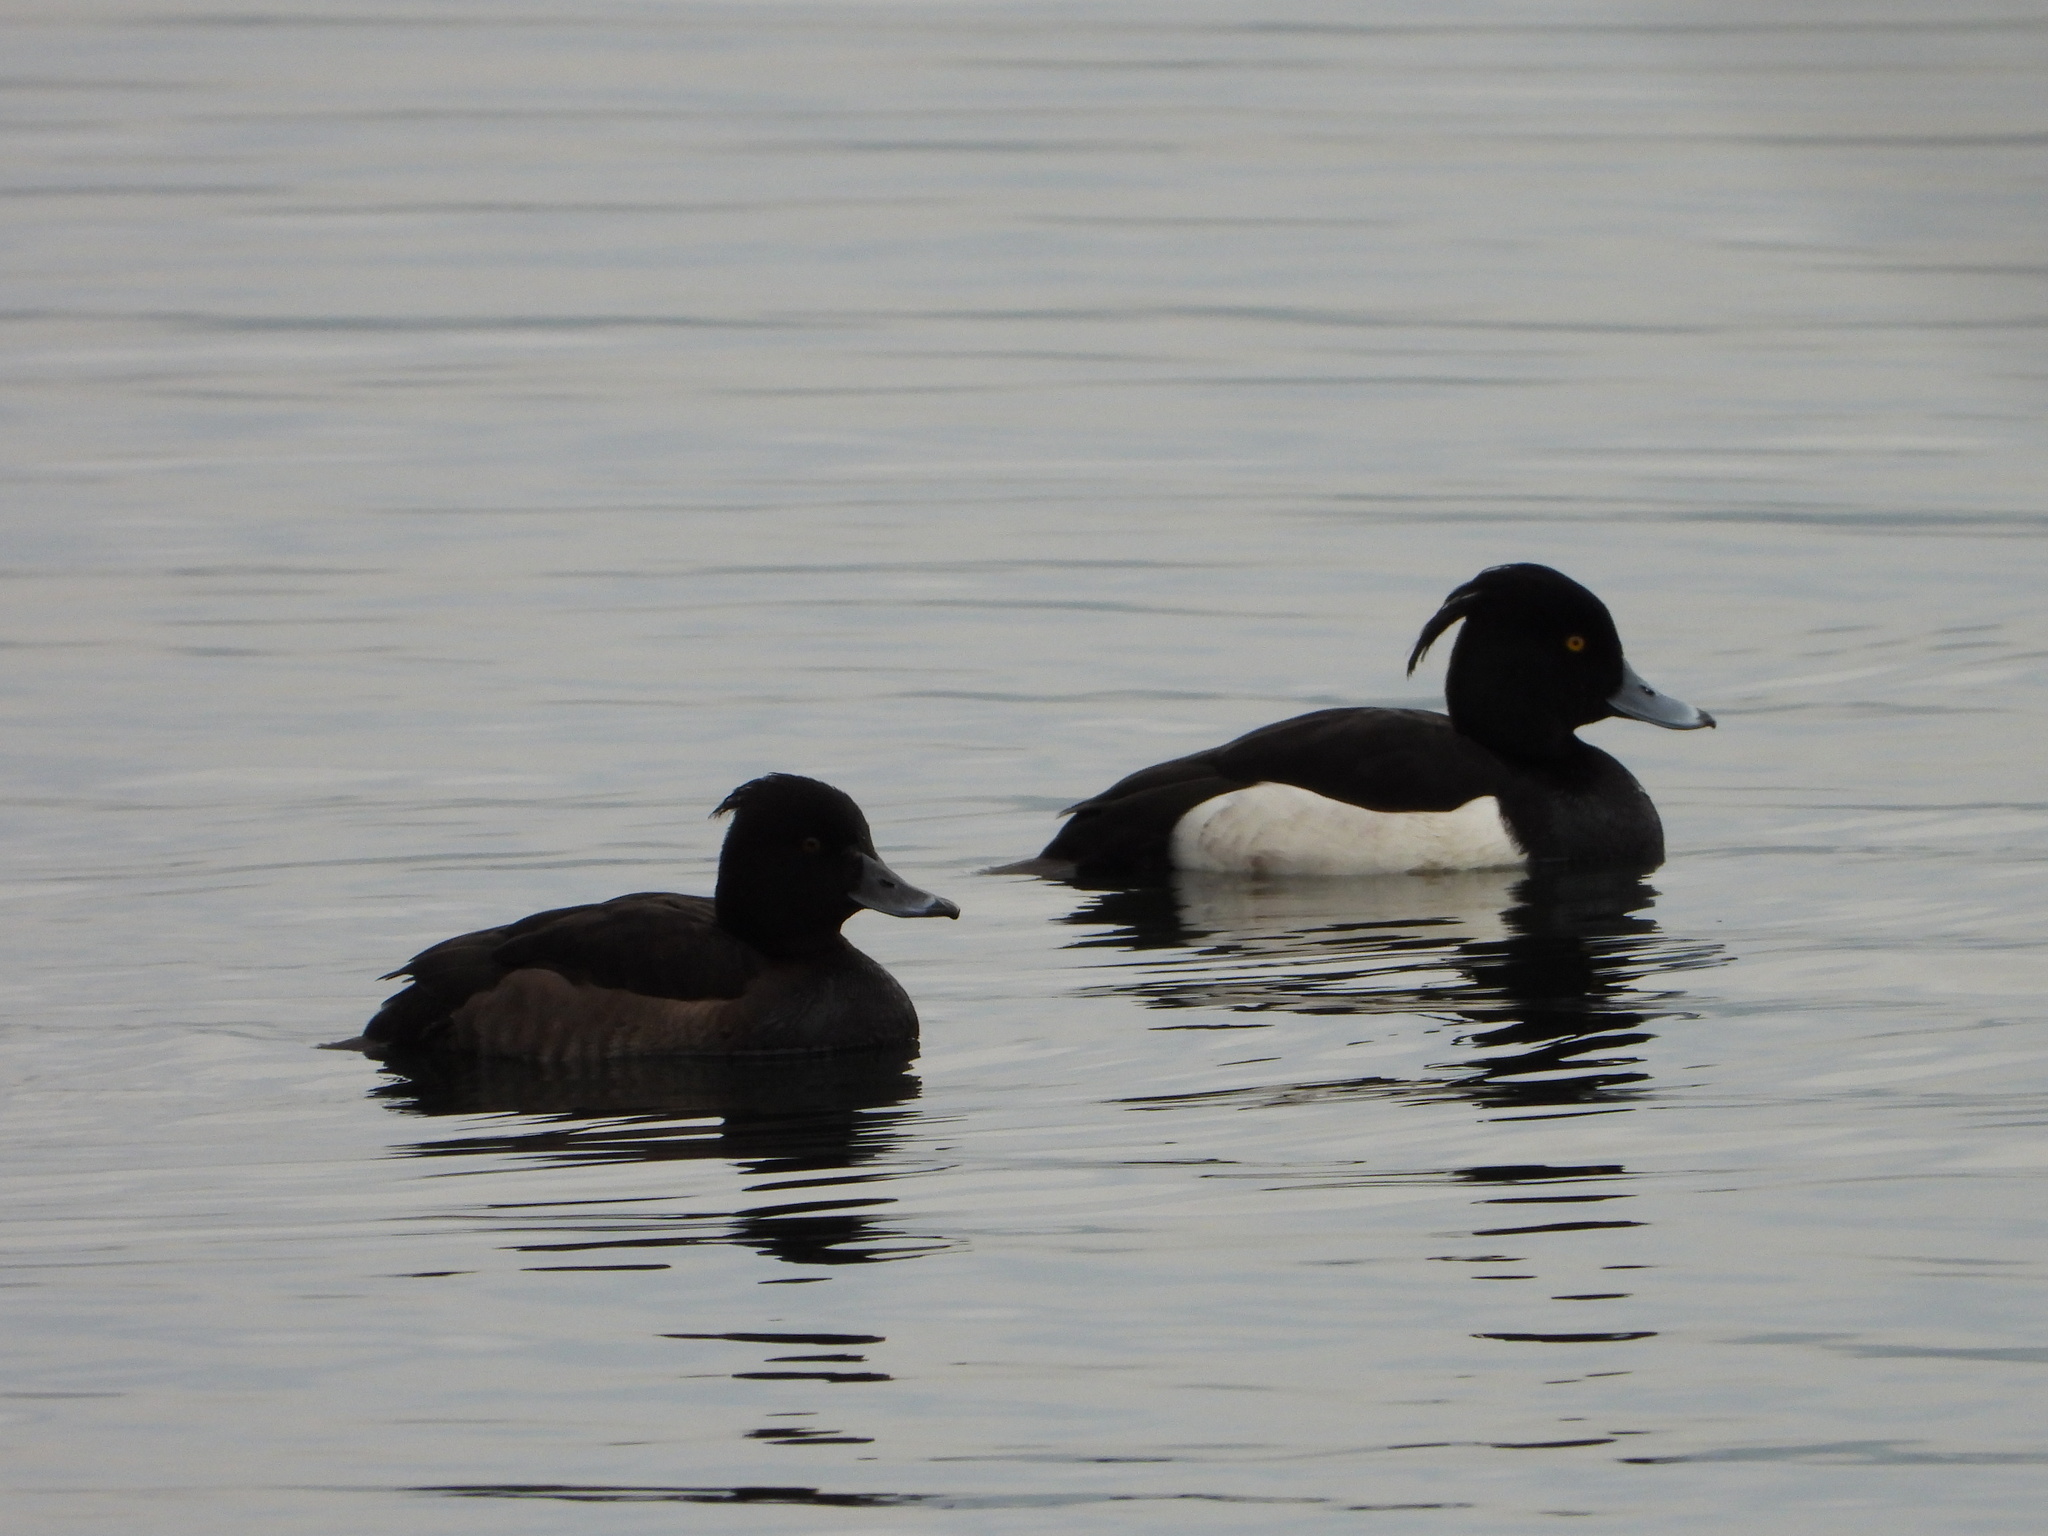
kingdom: Animalia
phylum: Chordata
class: Aves
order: Anseriformes
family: Anatidae
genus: Aythya
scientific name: Aythya fuligula
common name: Tufted duck
